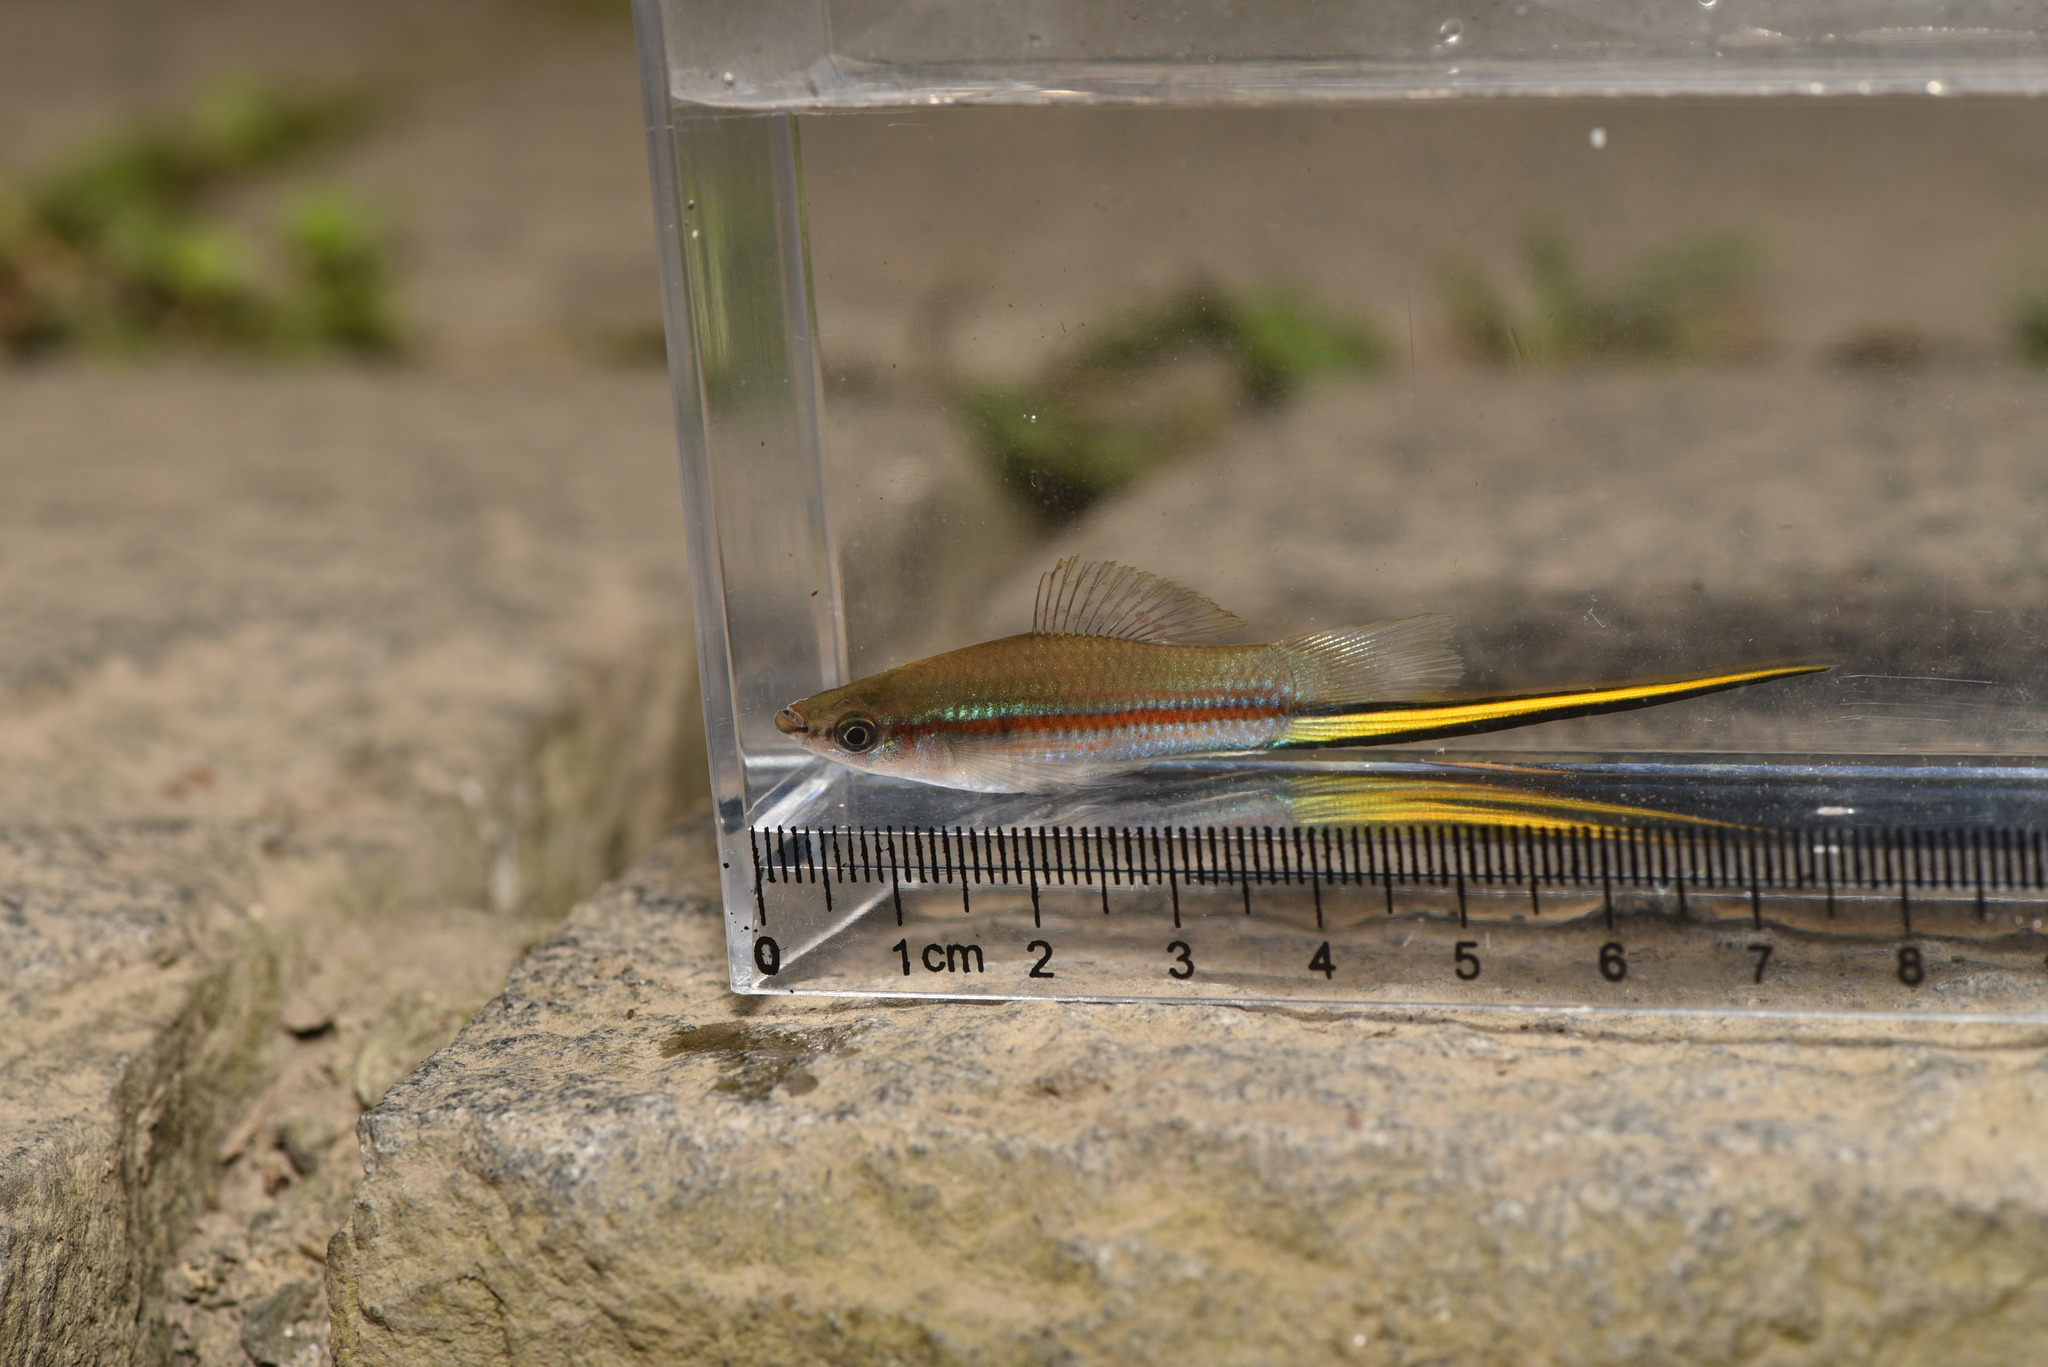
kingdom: Animalia
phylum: Chordata
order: Cyprinodontiformes
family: Poeciliidae
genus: Xiphophorus
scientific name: Xiphophorus hellerii
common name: Green swordtail
